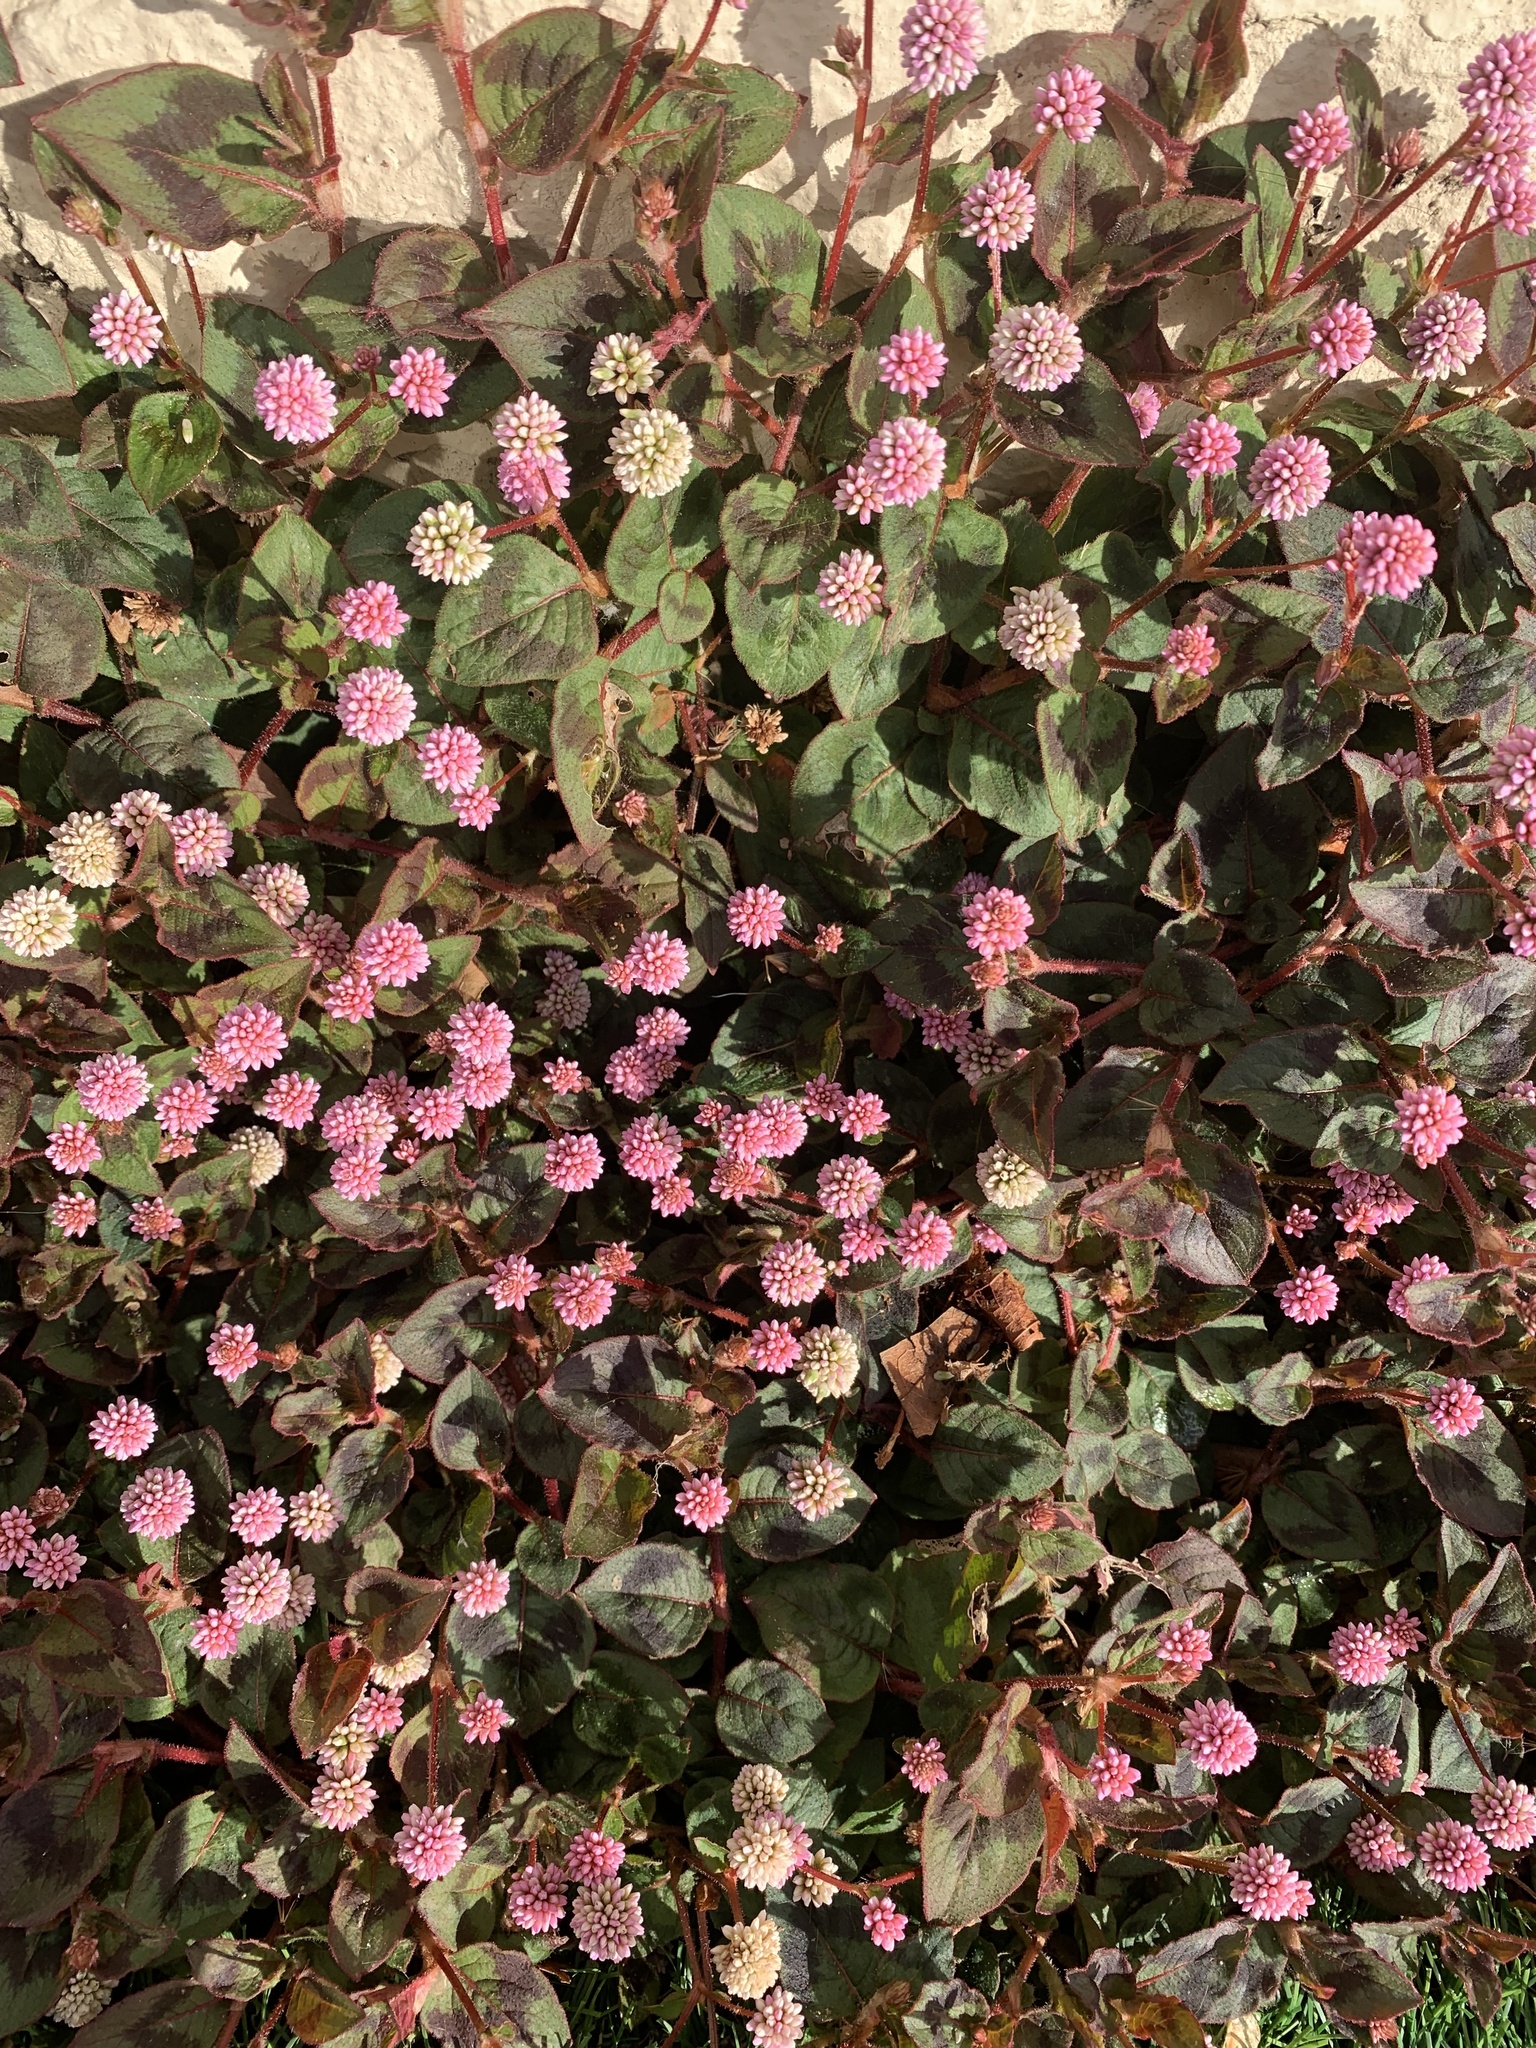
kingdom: Plantae
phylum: Tracheophyta
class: Magnoliopsida
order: Caryophyllales
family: Polygonaceae
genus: Persicaria
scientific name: Persicaria capitata
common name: Pinkhead smartweed
